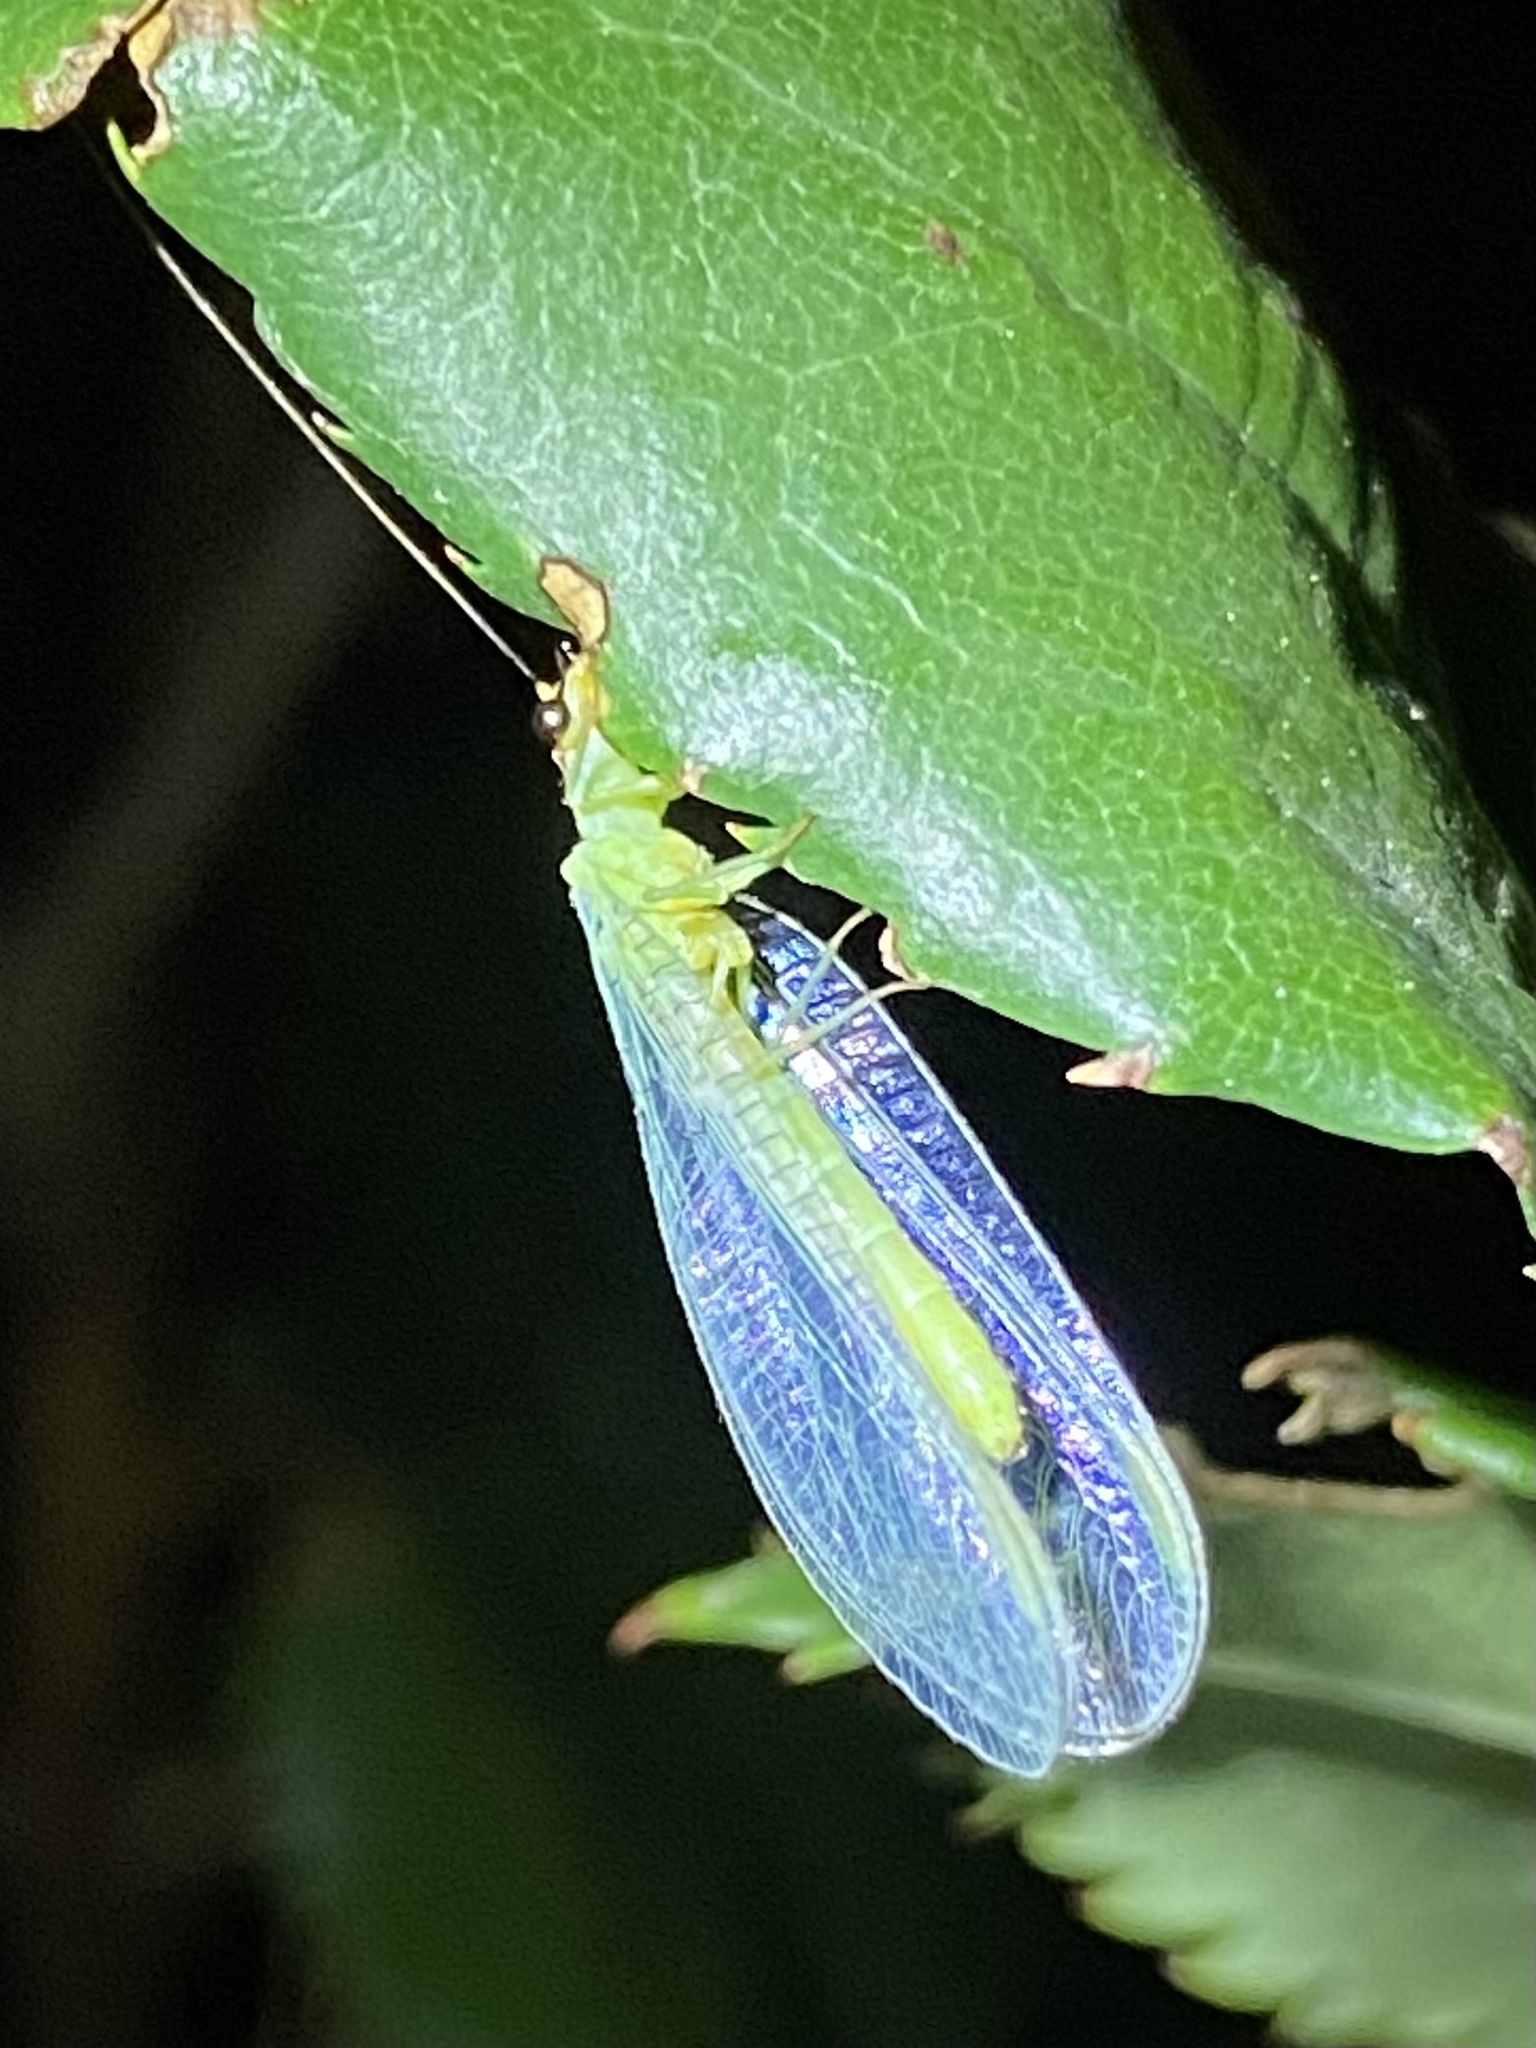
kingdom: Animalia
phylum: Arthropoda
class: Insecta
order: Neuroptera
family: Chrysopidae
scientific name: Chrysopidae
